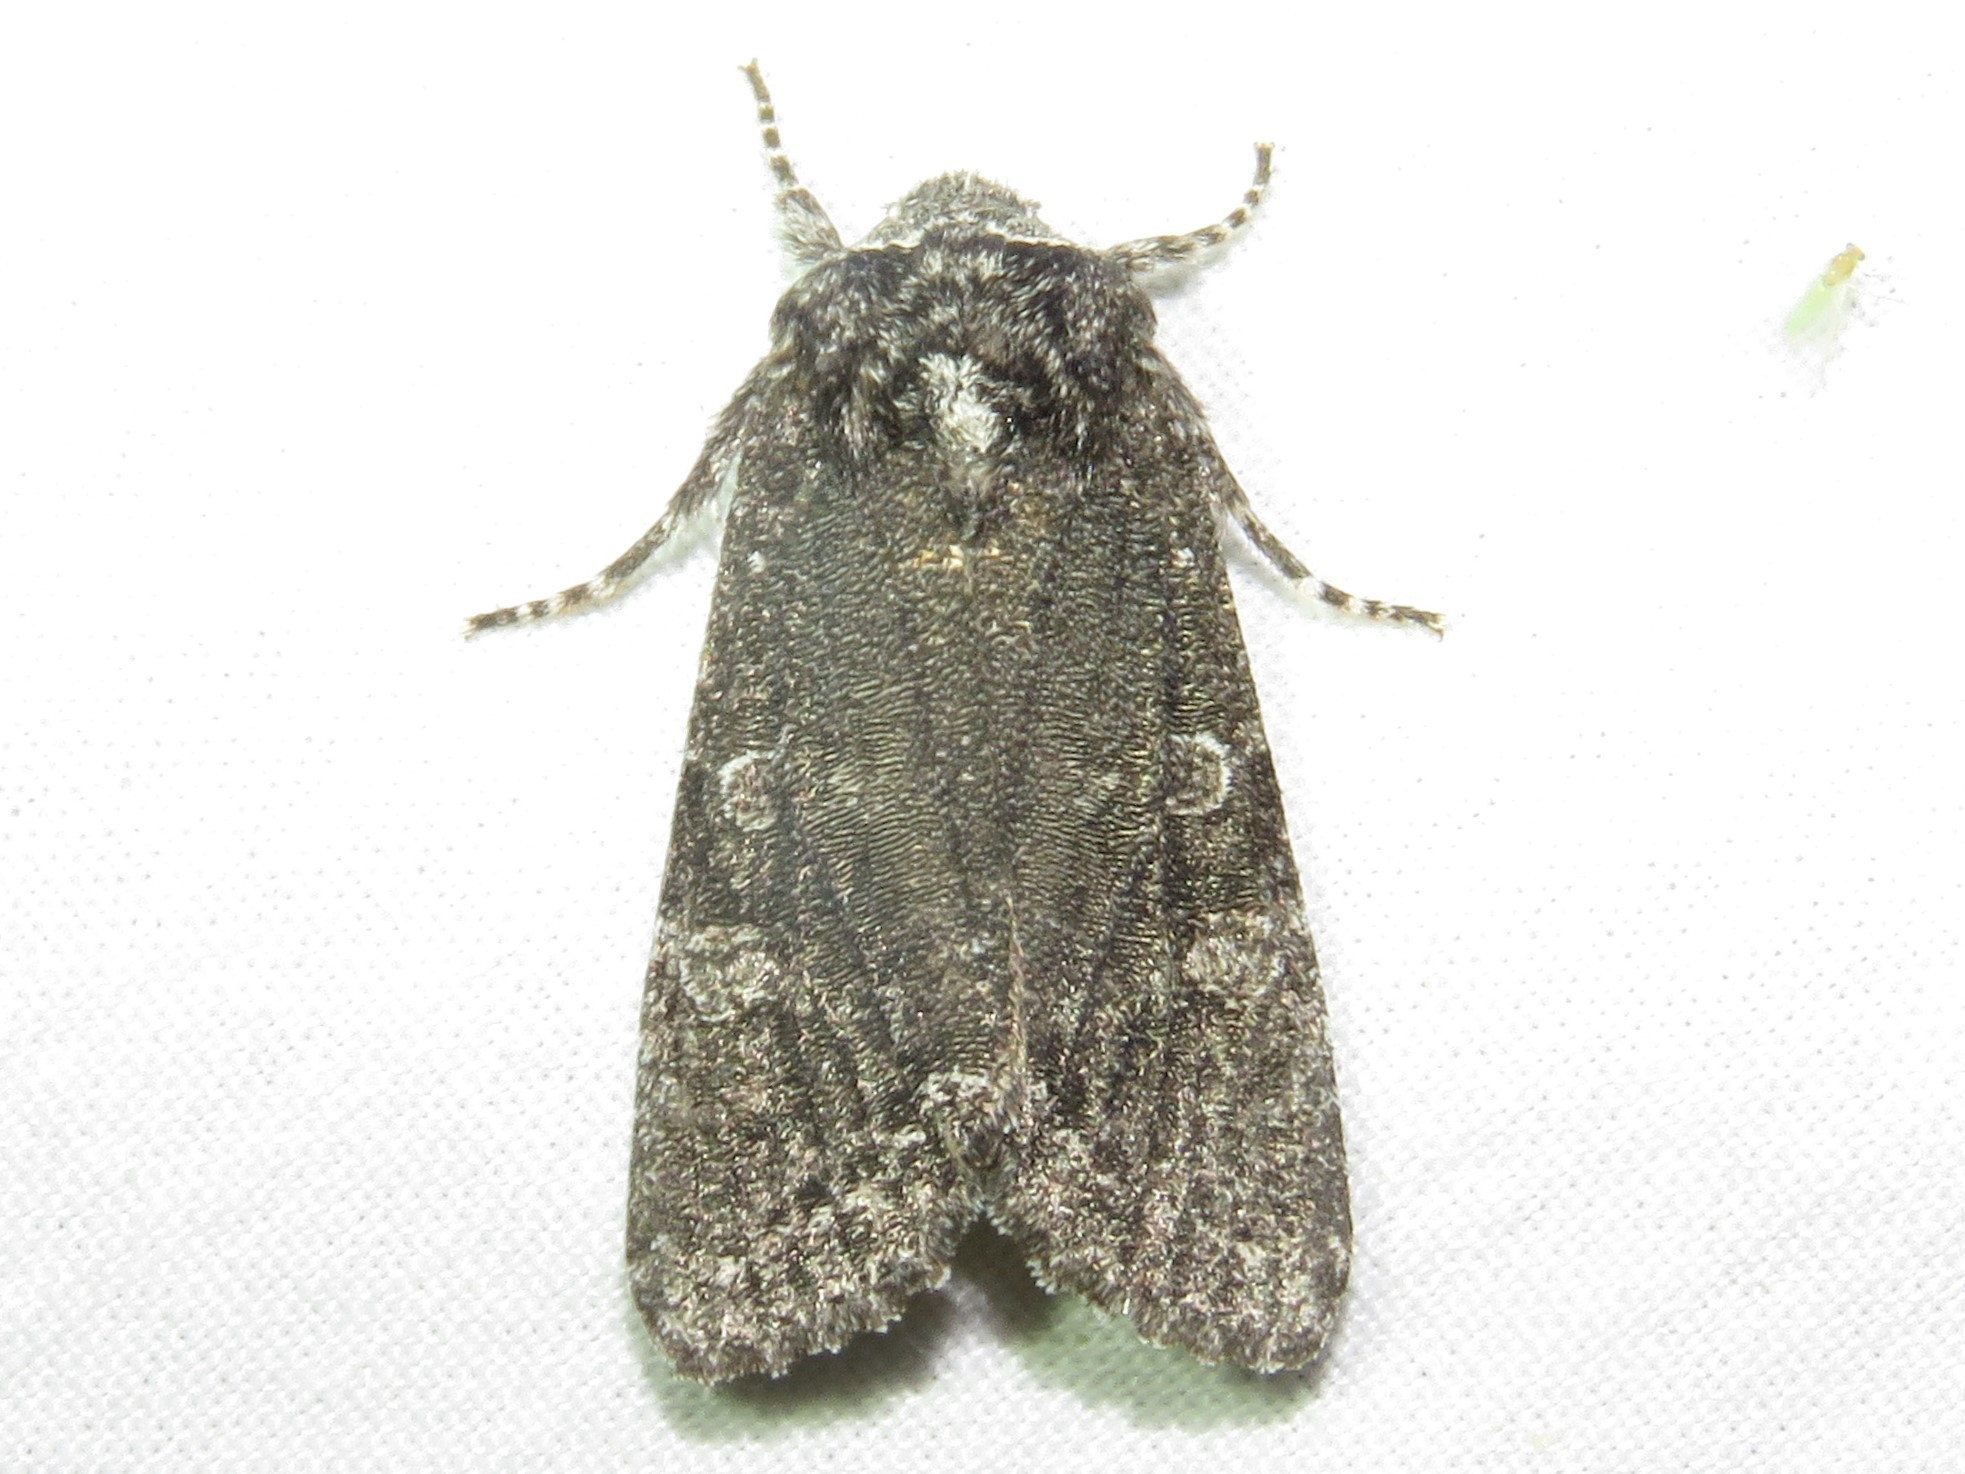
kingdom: Animalia
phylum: Arthropoda
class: Insecta
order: Lepidoptera
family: Noctuidae
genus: Egira
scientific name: Egira dolosa
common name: Lined black aspen cat.
